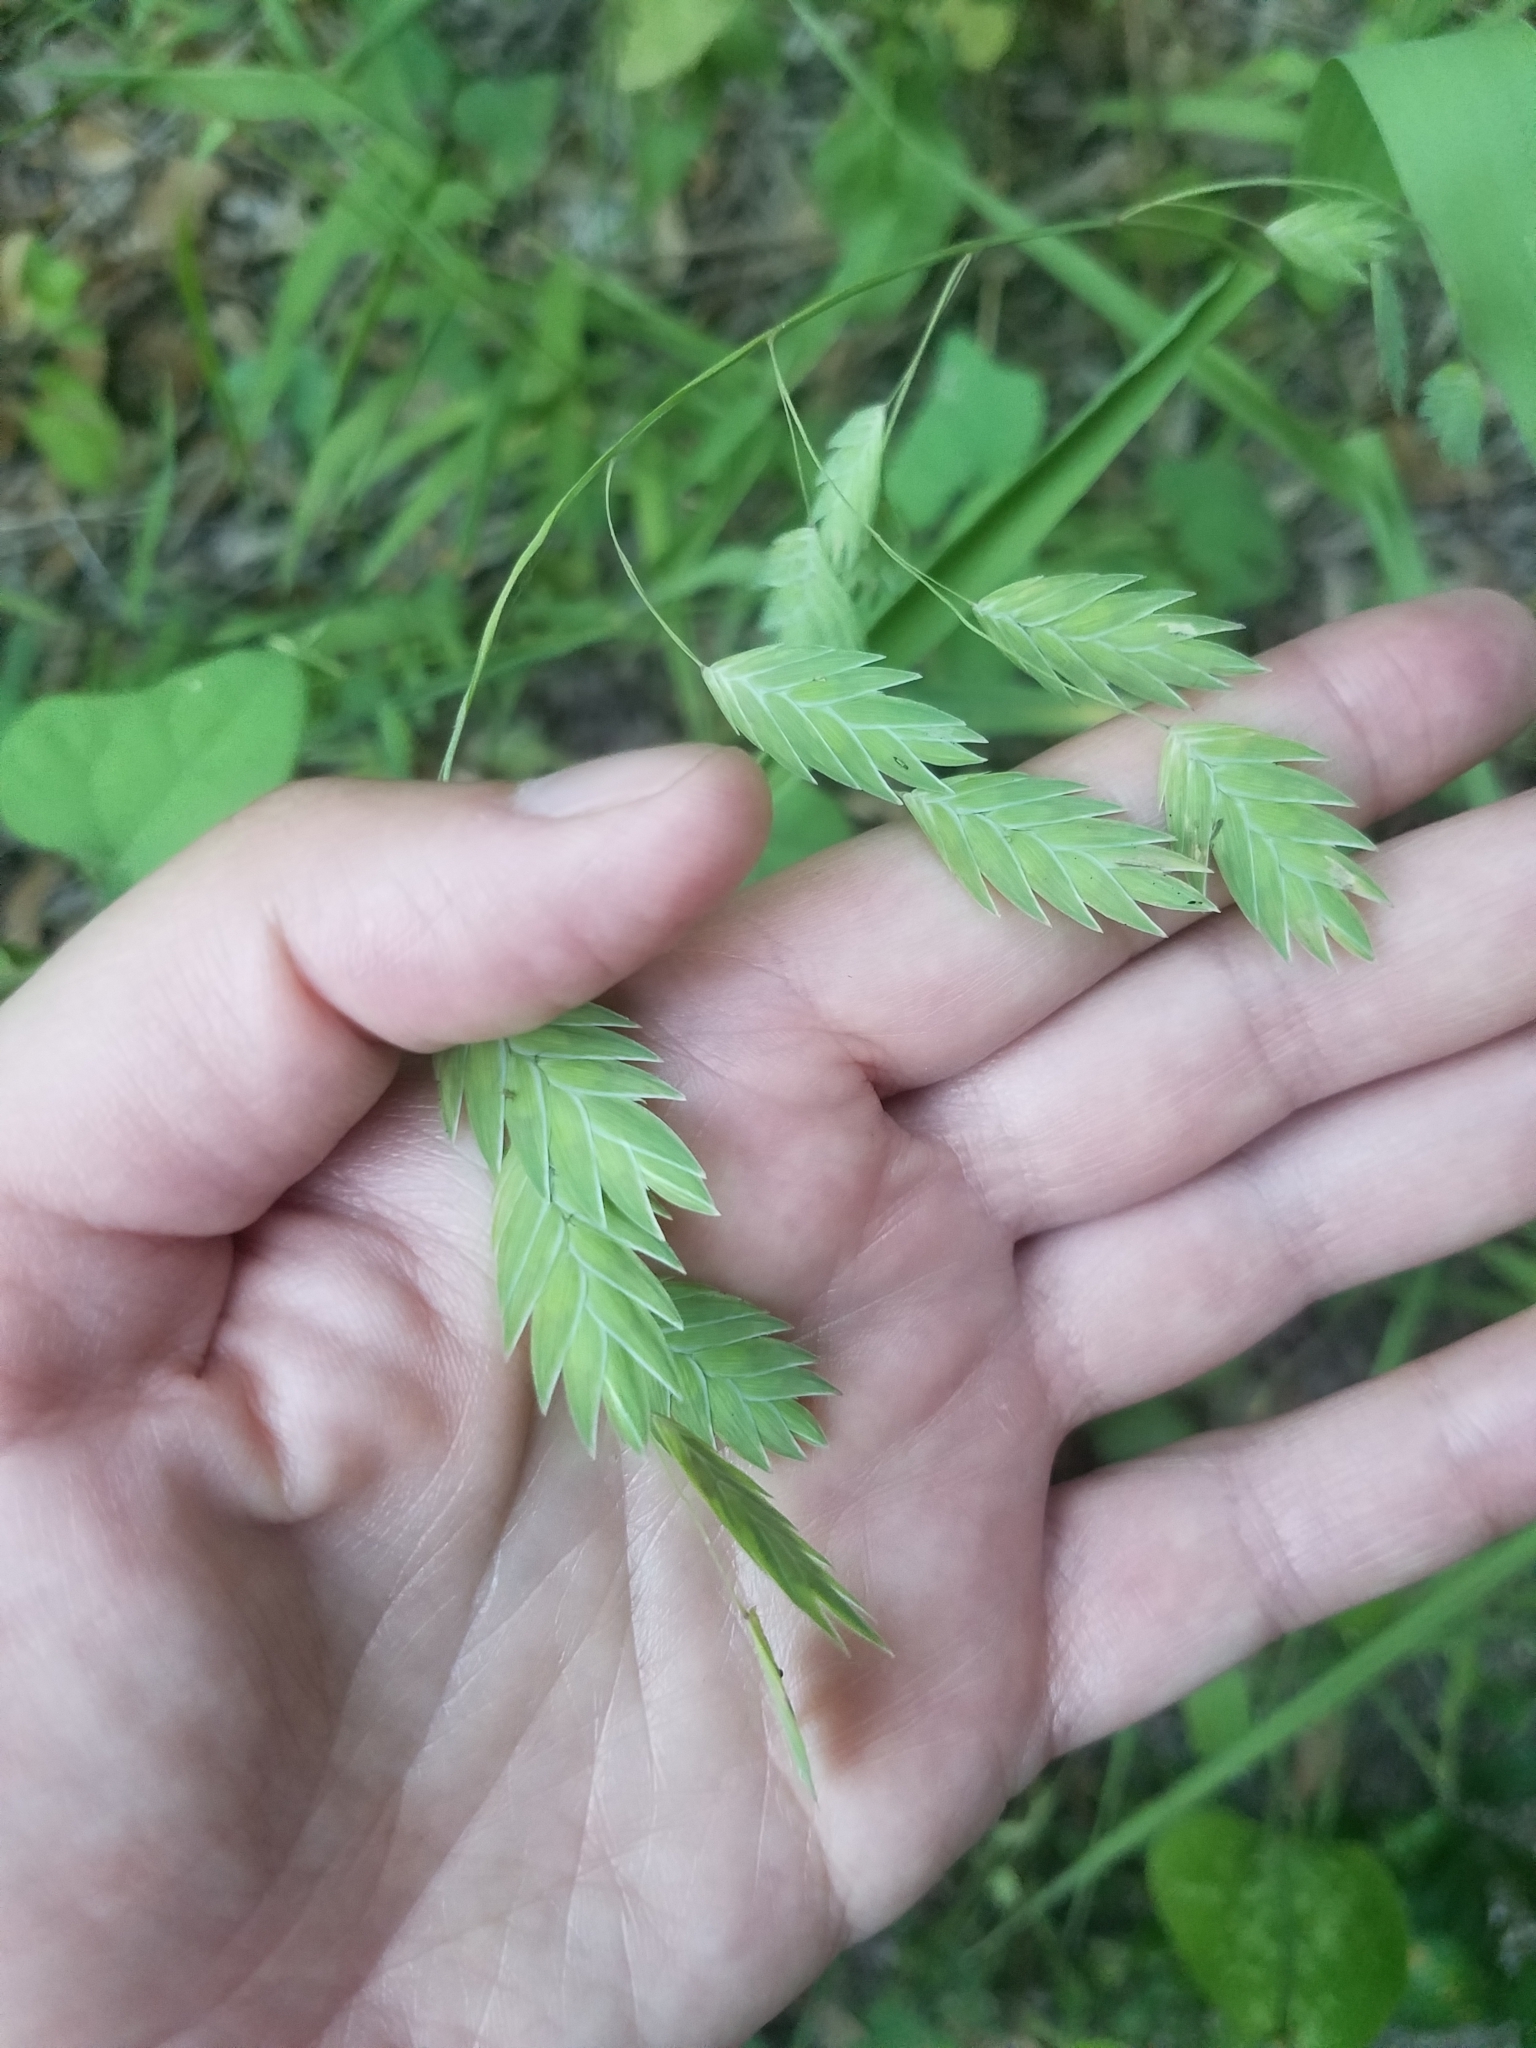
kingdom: Plantae
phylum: Tracheophyta
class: Liliopsida
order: Poales
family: Poaceae
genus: Chasmanthium
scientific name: Chasmanthium latifolium
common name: Broad-leaved chasmanthium
